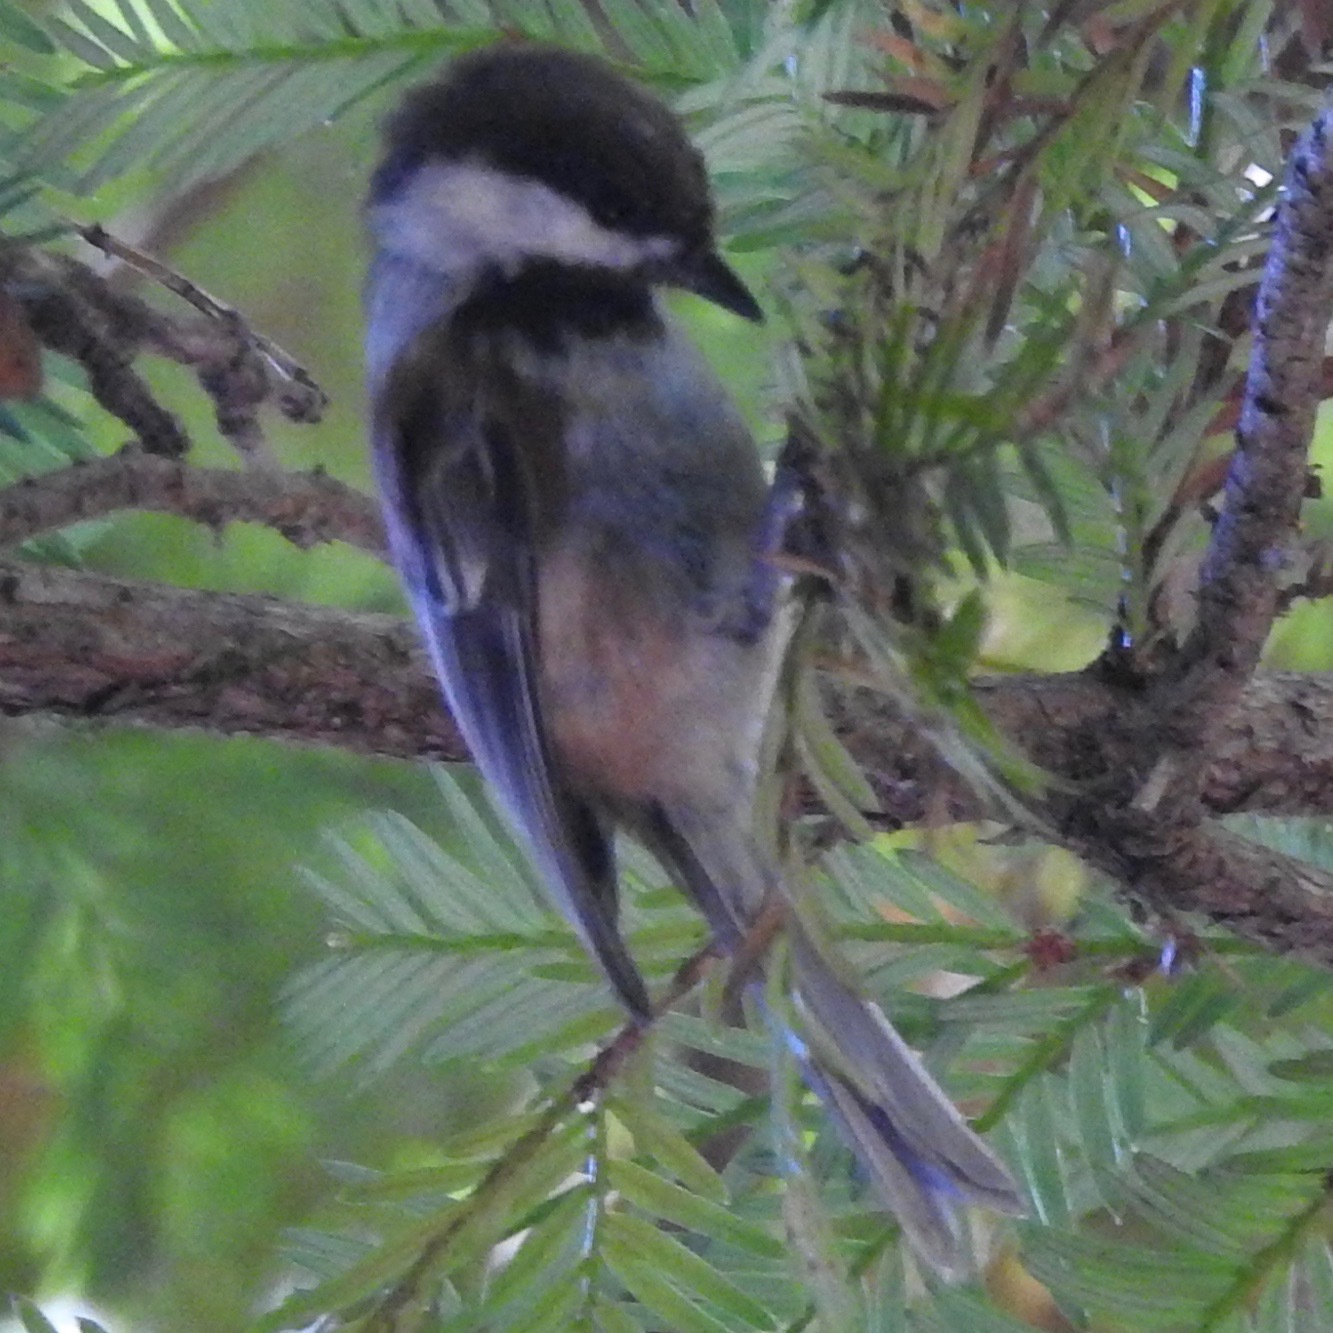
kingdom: Animalia
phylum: Chordata
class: Aves
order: Passeriformes
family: Paridae
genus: Poecile
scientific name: Poecile rufescens
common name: Chestnut-backed chickadee
